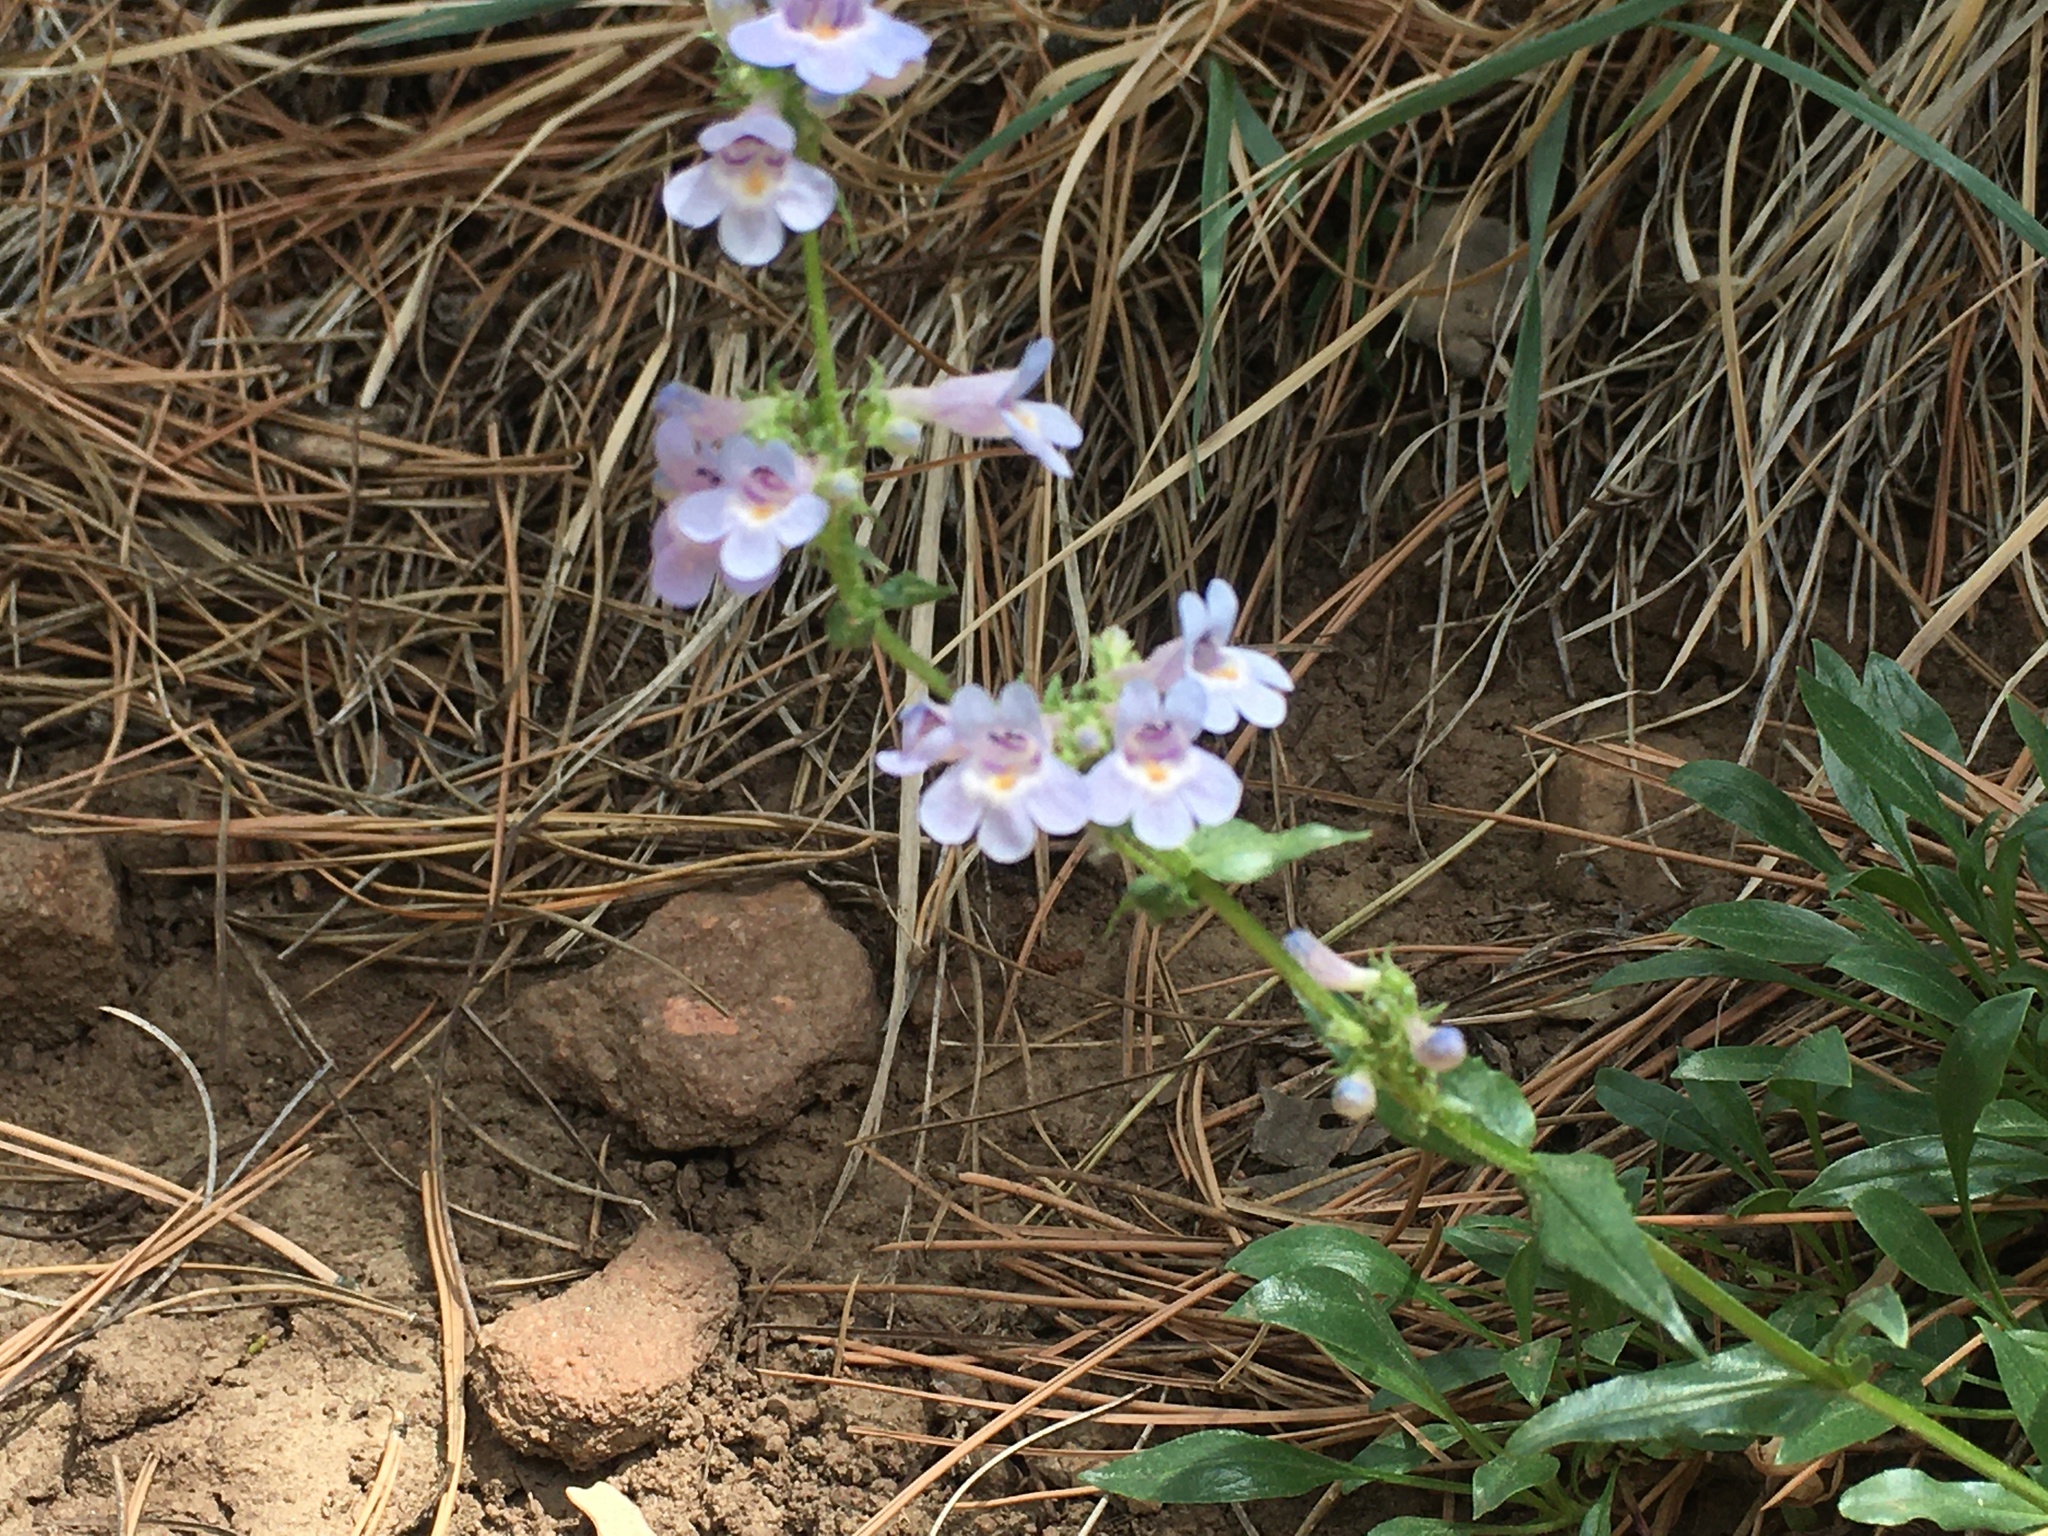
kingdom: Plantae
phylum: Tracheophyta
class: Magnoliopsida
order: Lamiales
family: Plantaginaceae
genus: Penstemon
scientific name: Penstemon virens
